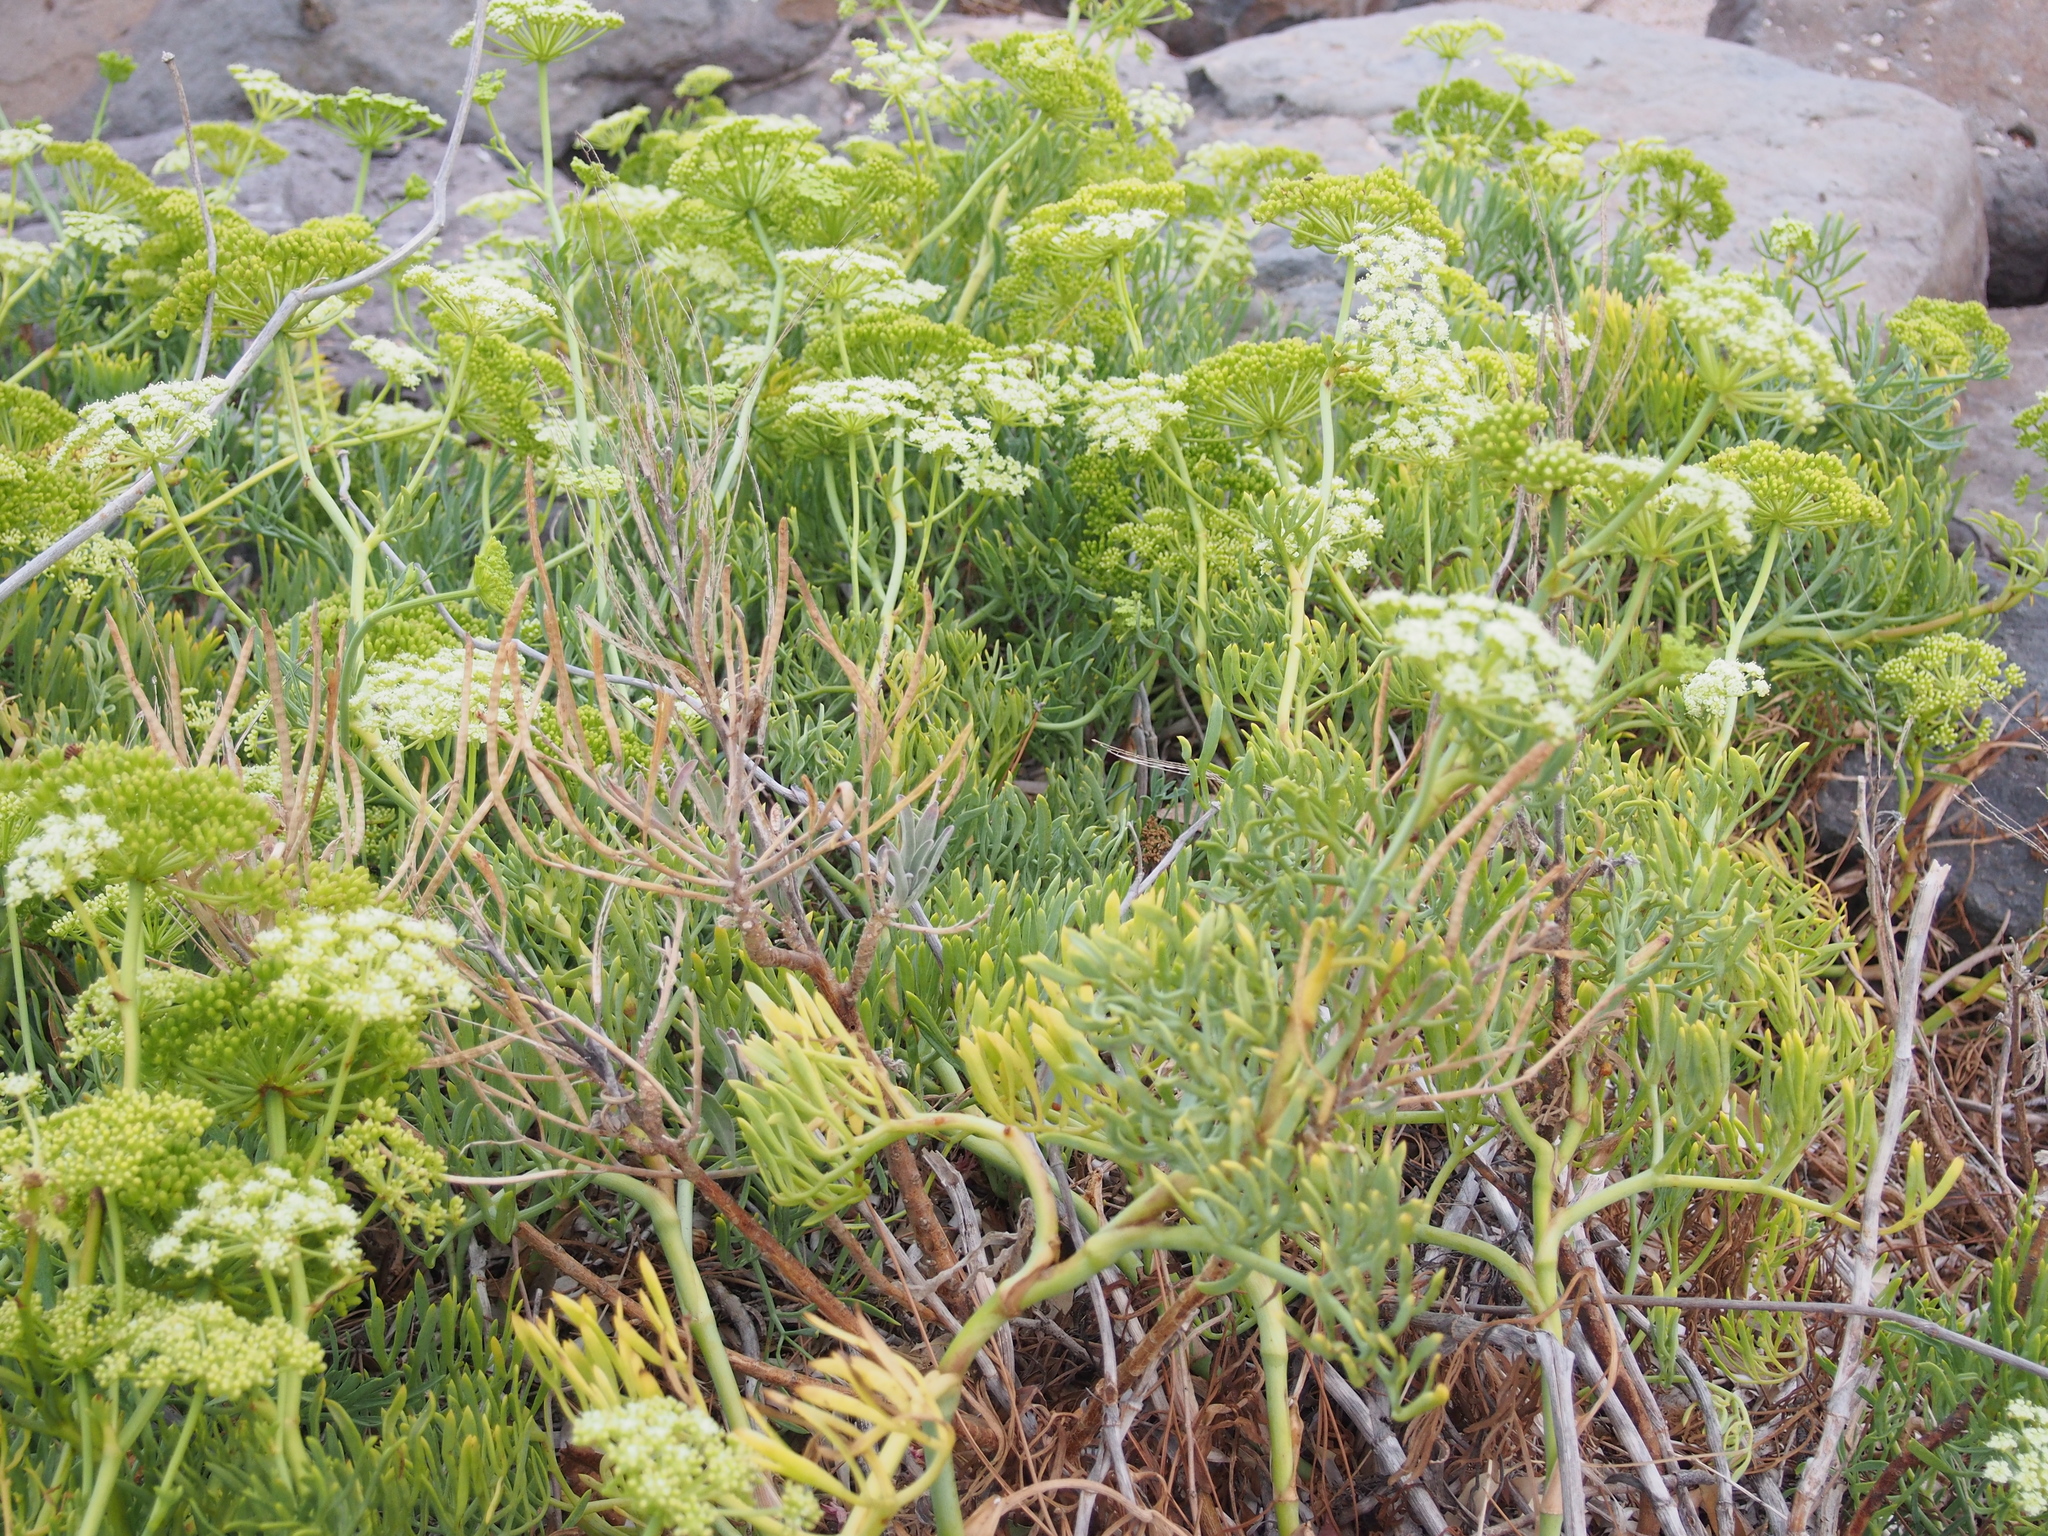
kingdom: Plantae
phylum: Tracheophyta
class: Magnoliopsida
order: Apiales
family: Apiaceae
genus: Crithmum
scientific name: Crithmum maritimum
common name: Rock samphire
